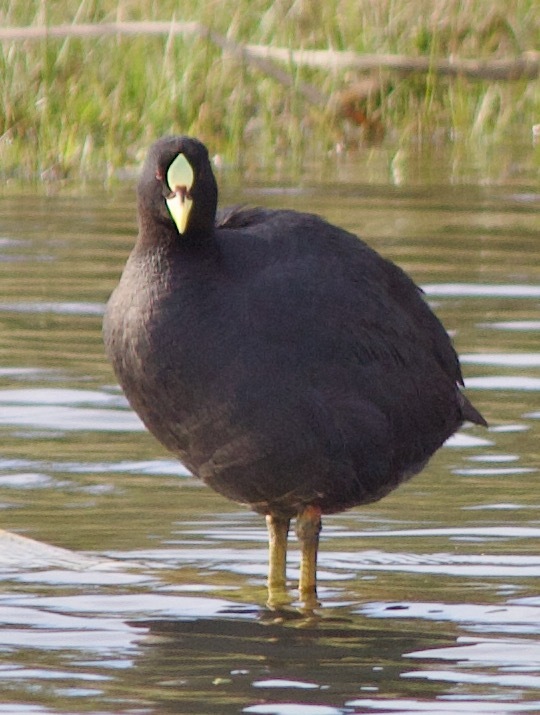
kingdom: Animalia
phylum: Chordata
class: Aves
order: Gruiformes
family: Rallidae
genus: Fulica
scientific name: Fulica armillata
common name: Red-gartered coot
